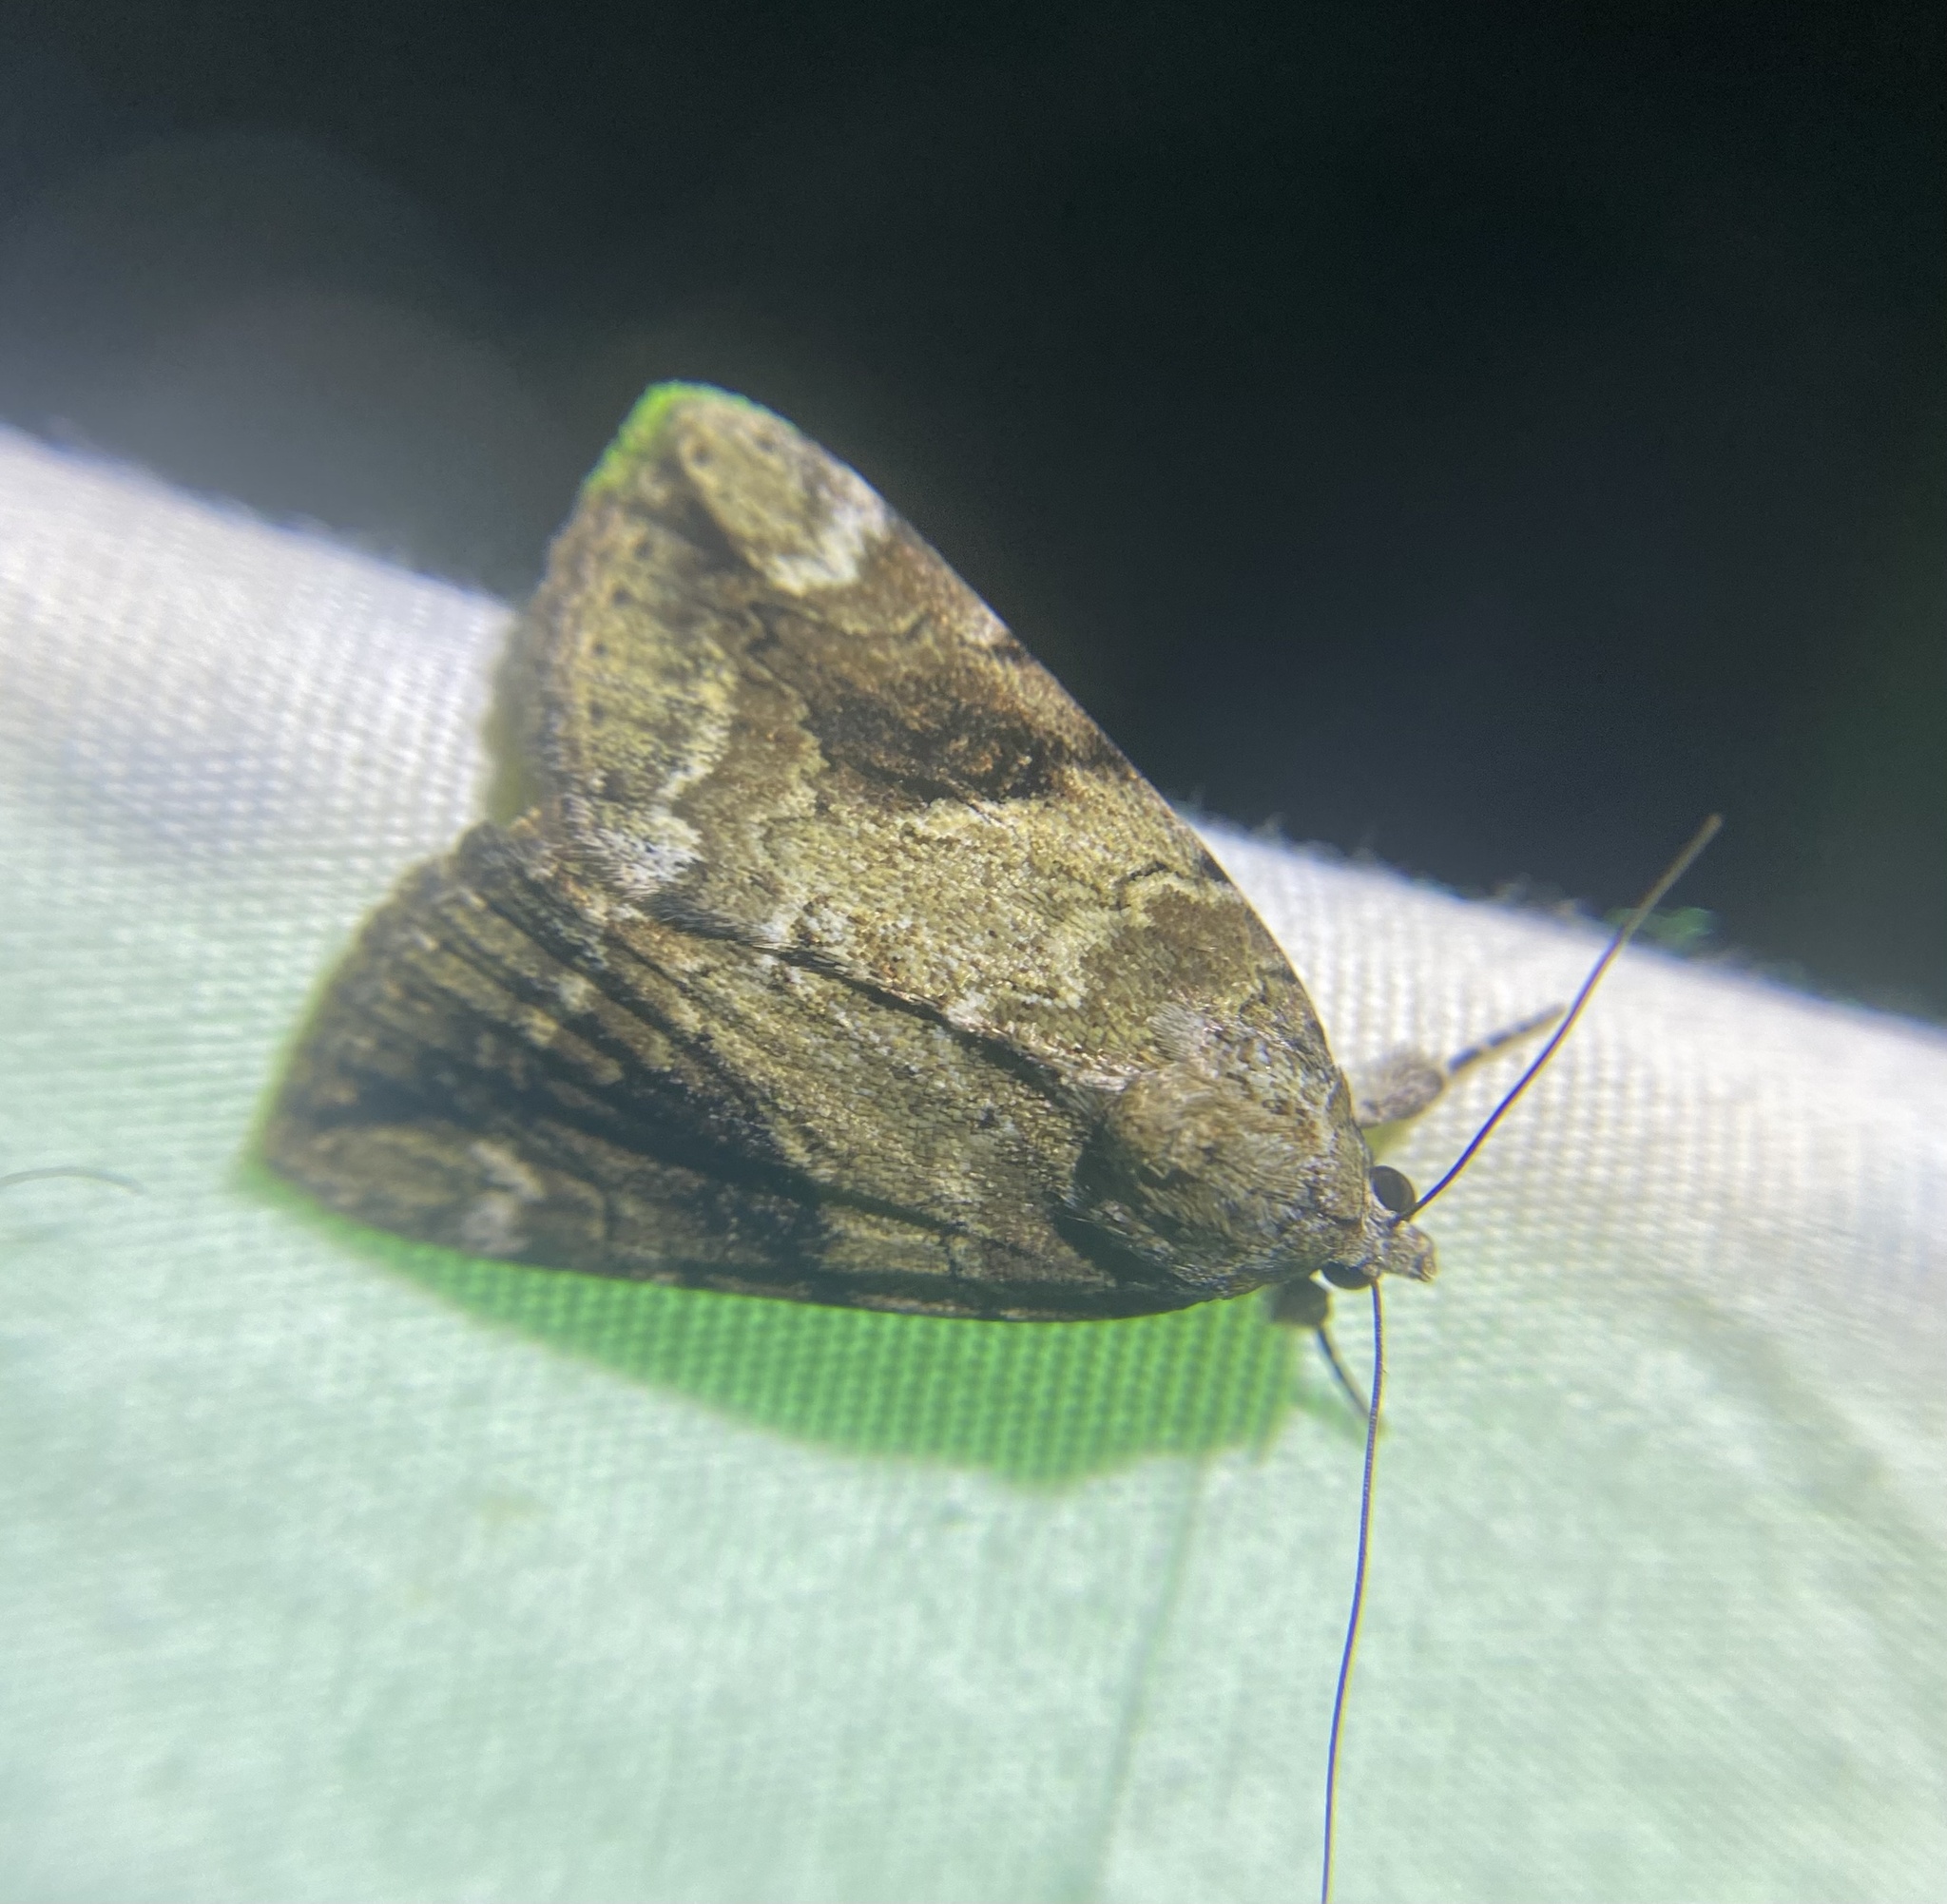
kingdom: Animalia
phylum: Arthropoda
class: Insecta
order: Lepidoptera
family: Erebidae
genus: Catocala
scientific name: Catocala micronympha
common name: Little nymph underwing
